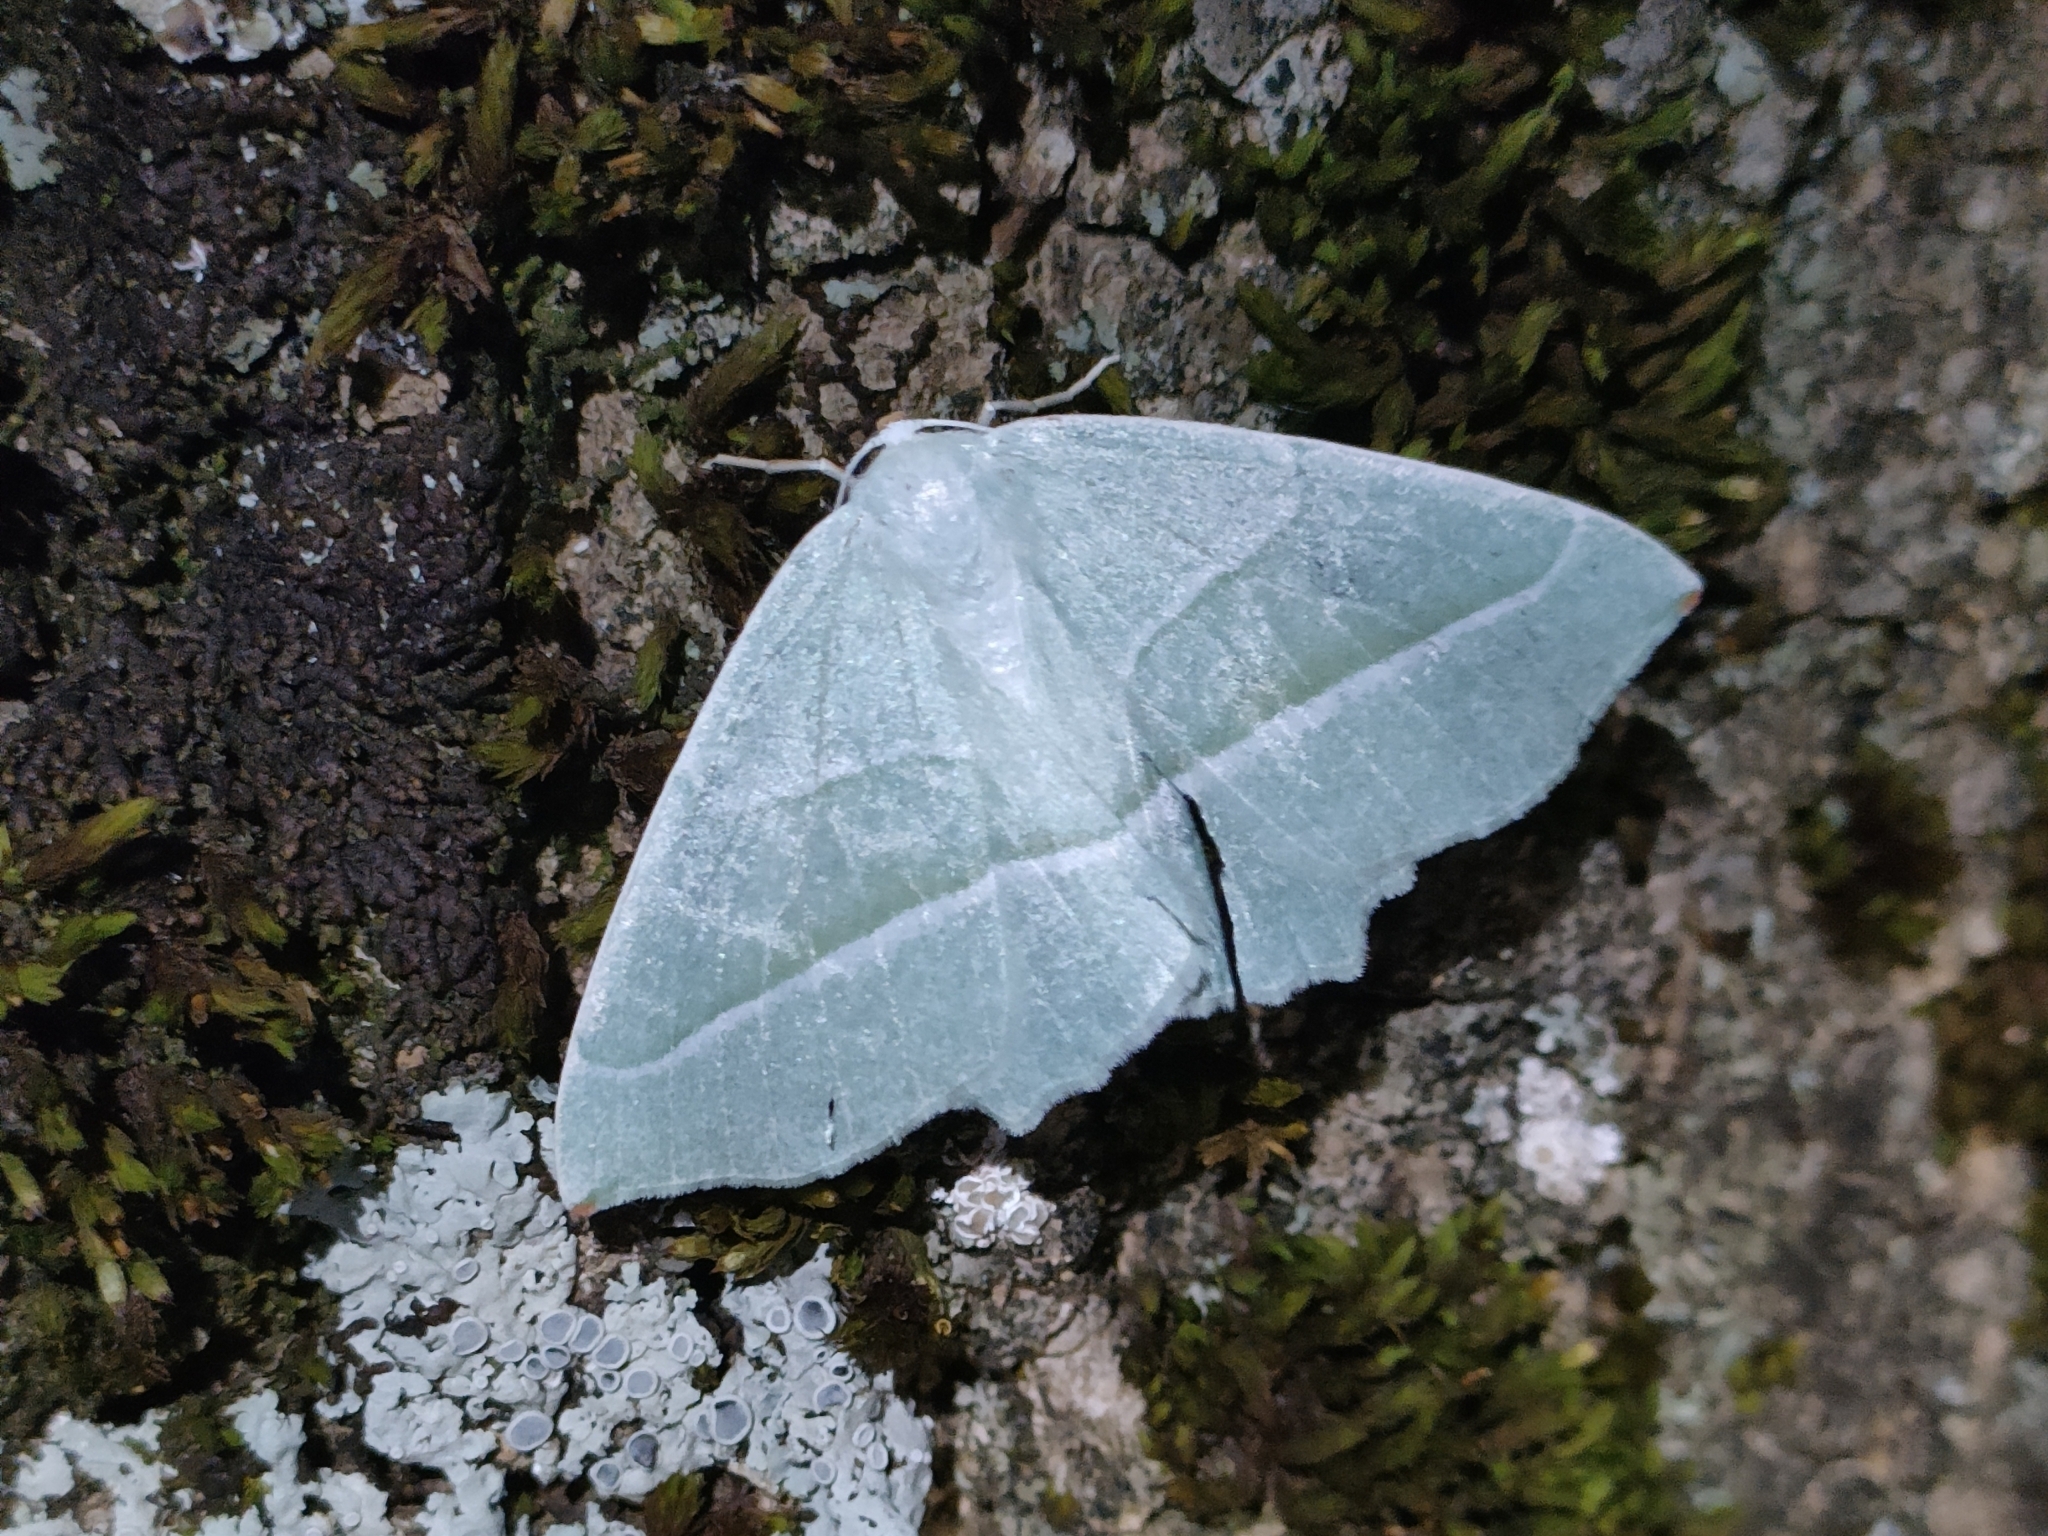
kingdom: Animalia
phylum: Arthropoda
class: Insecta
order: Lepidoptera
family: Geometridae
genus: Campaea
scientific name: Campaea margaritaria
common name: Light emerald
